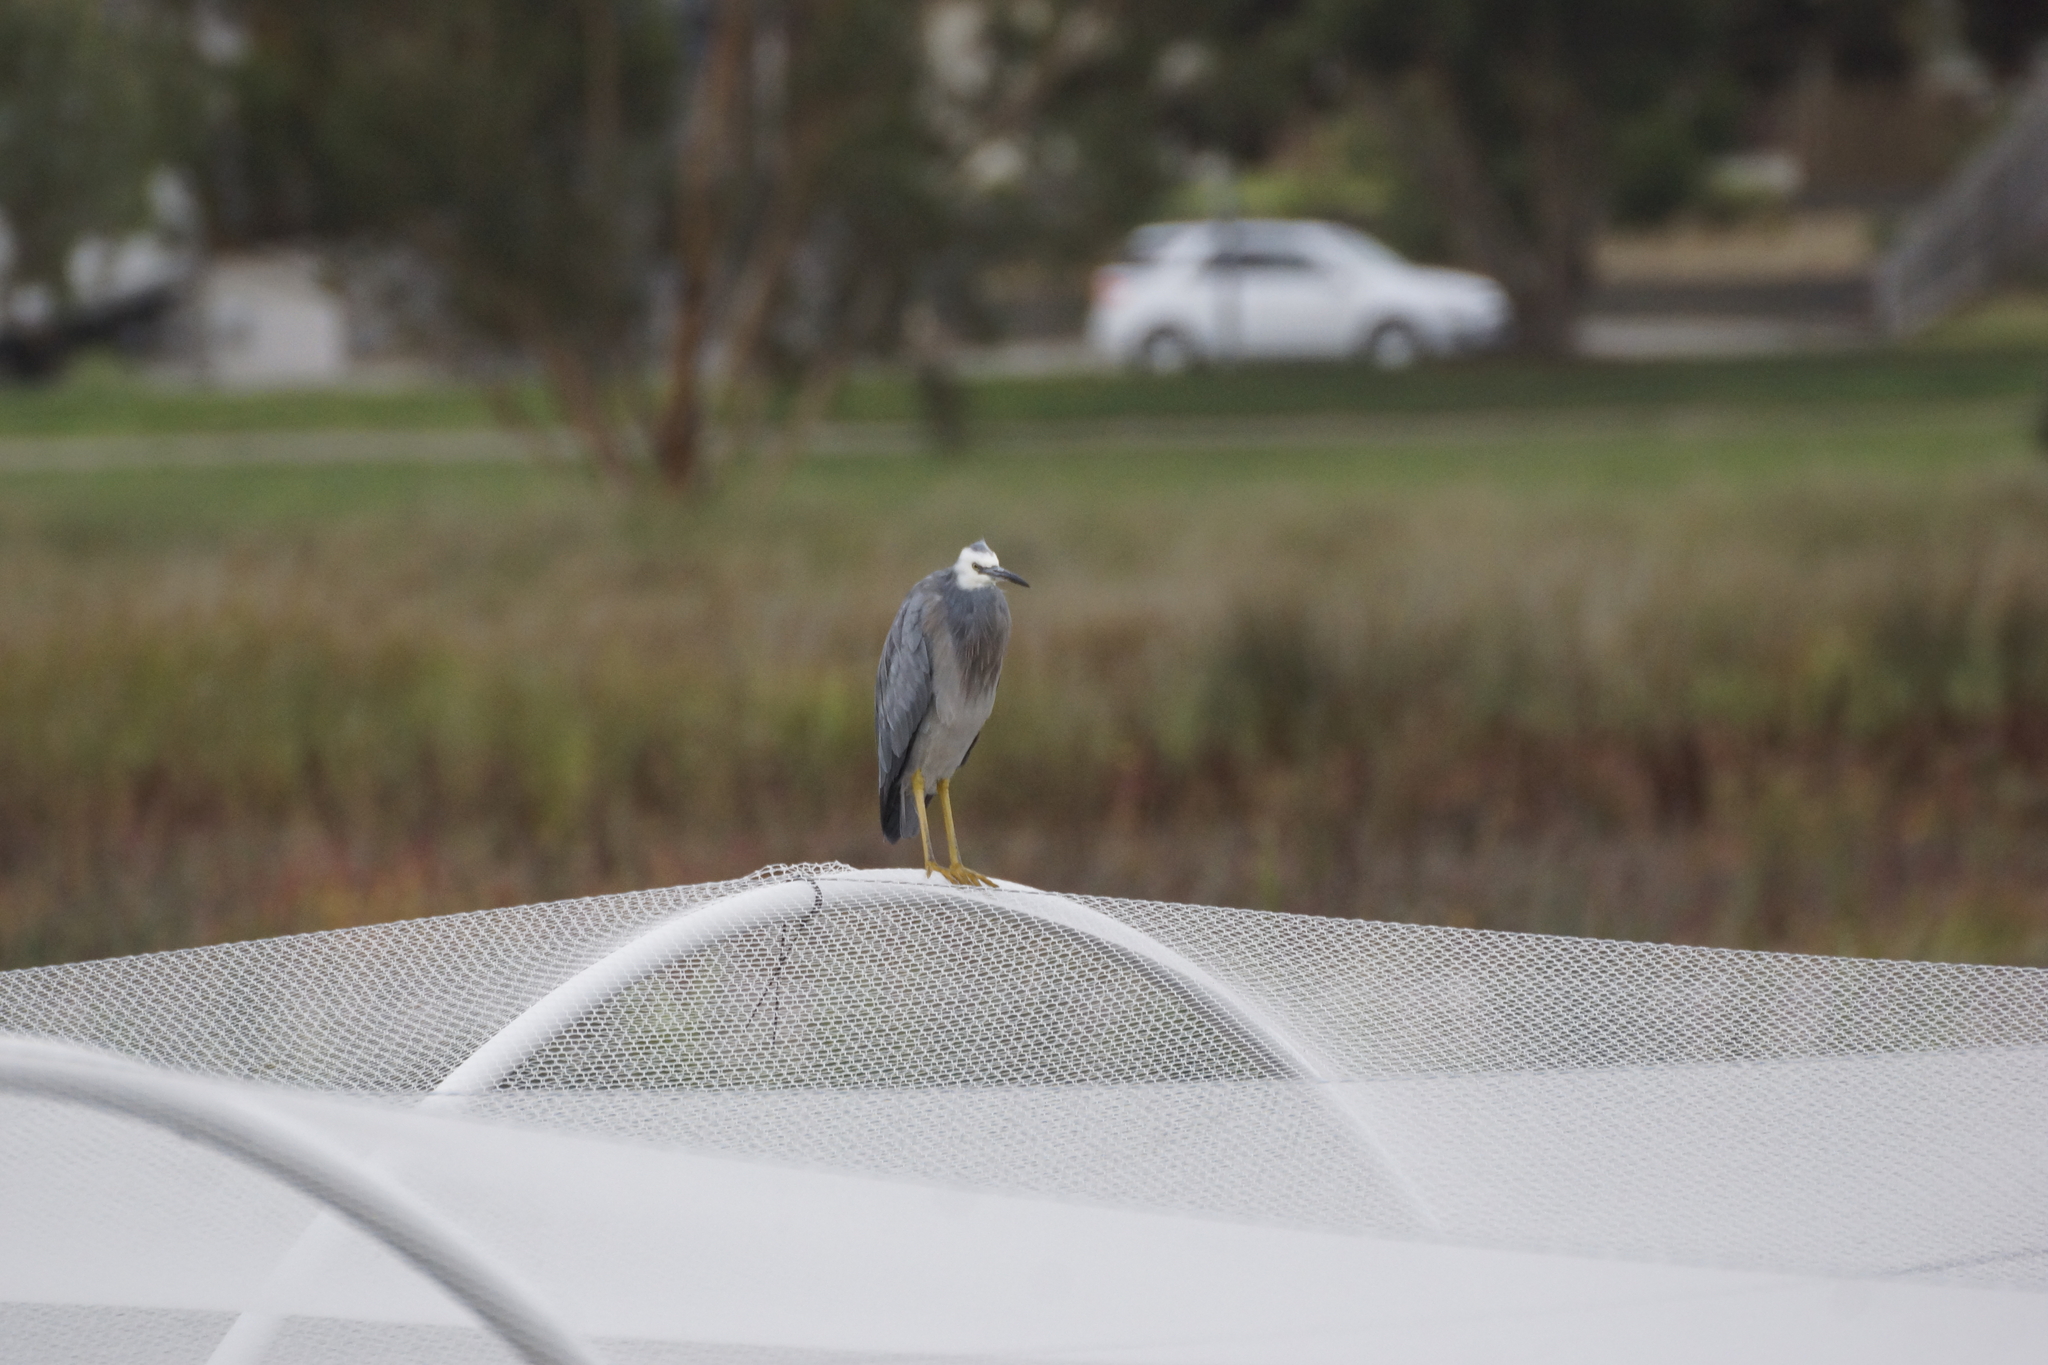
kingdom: Animalia
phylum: Chordata
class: Aves
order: Pelecaniformes
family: Ardeidae
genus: Egretta
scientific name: Egretta novaehollandiae
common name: White-faced heron
